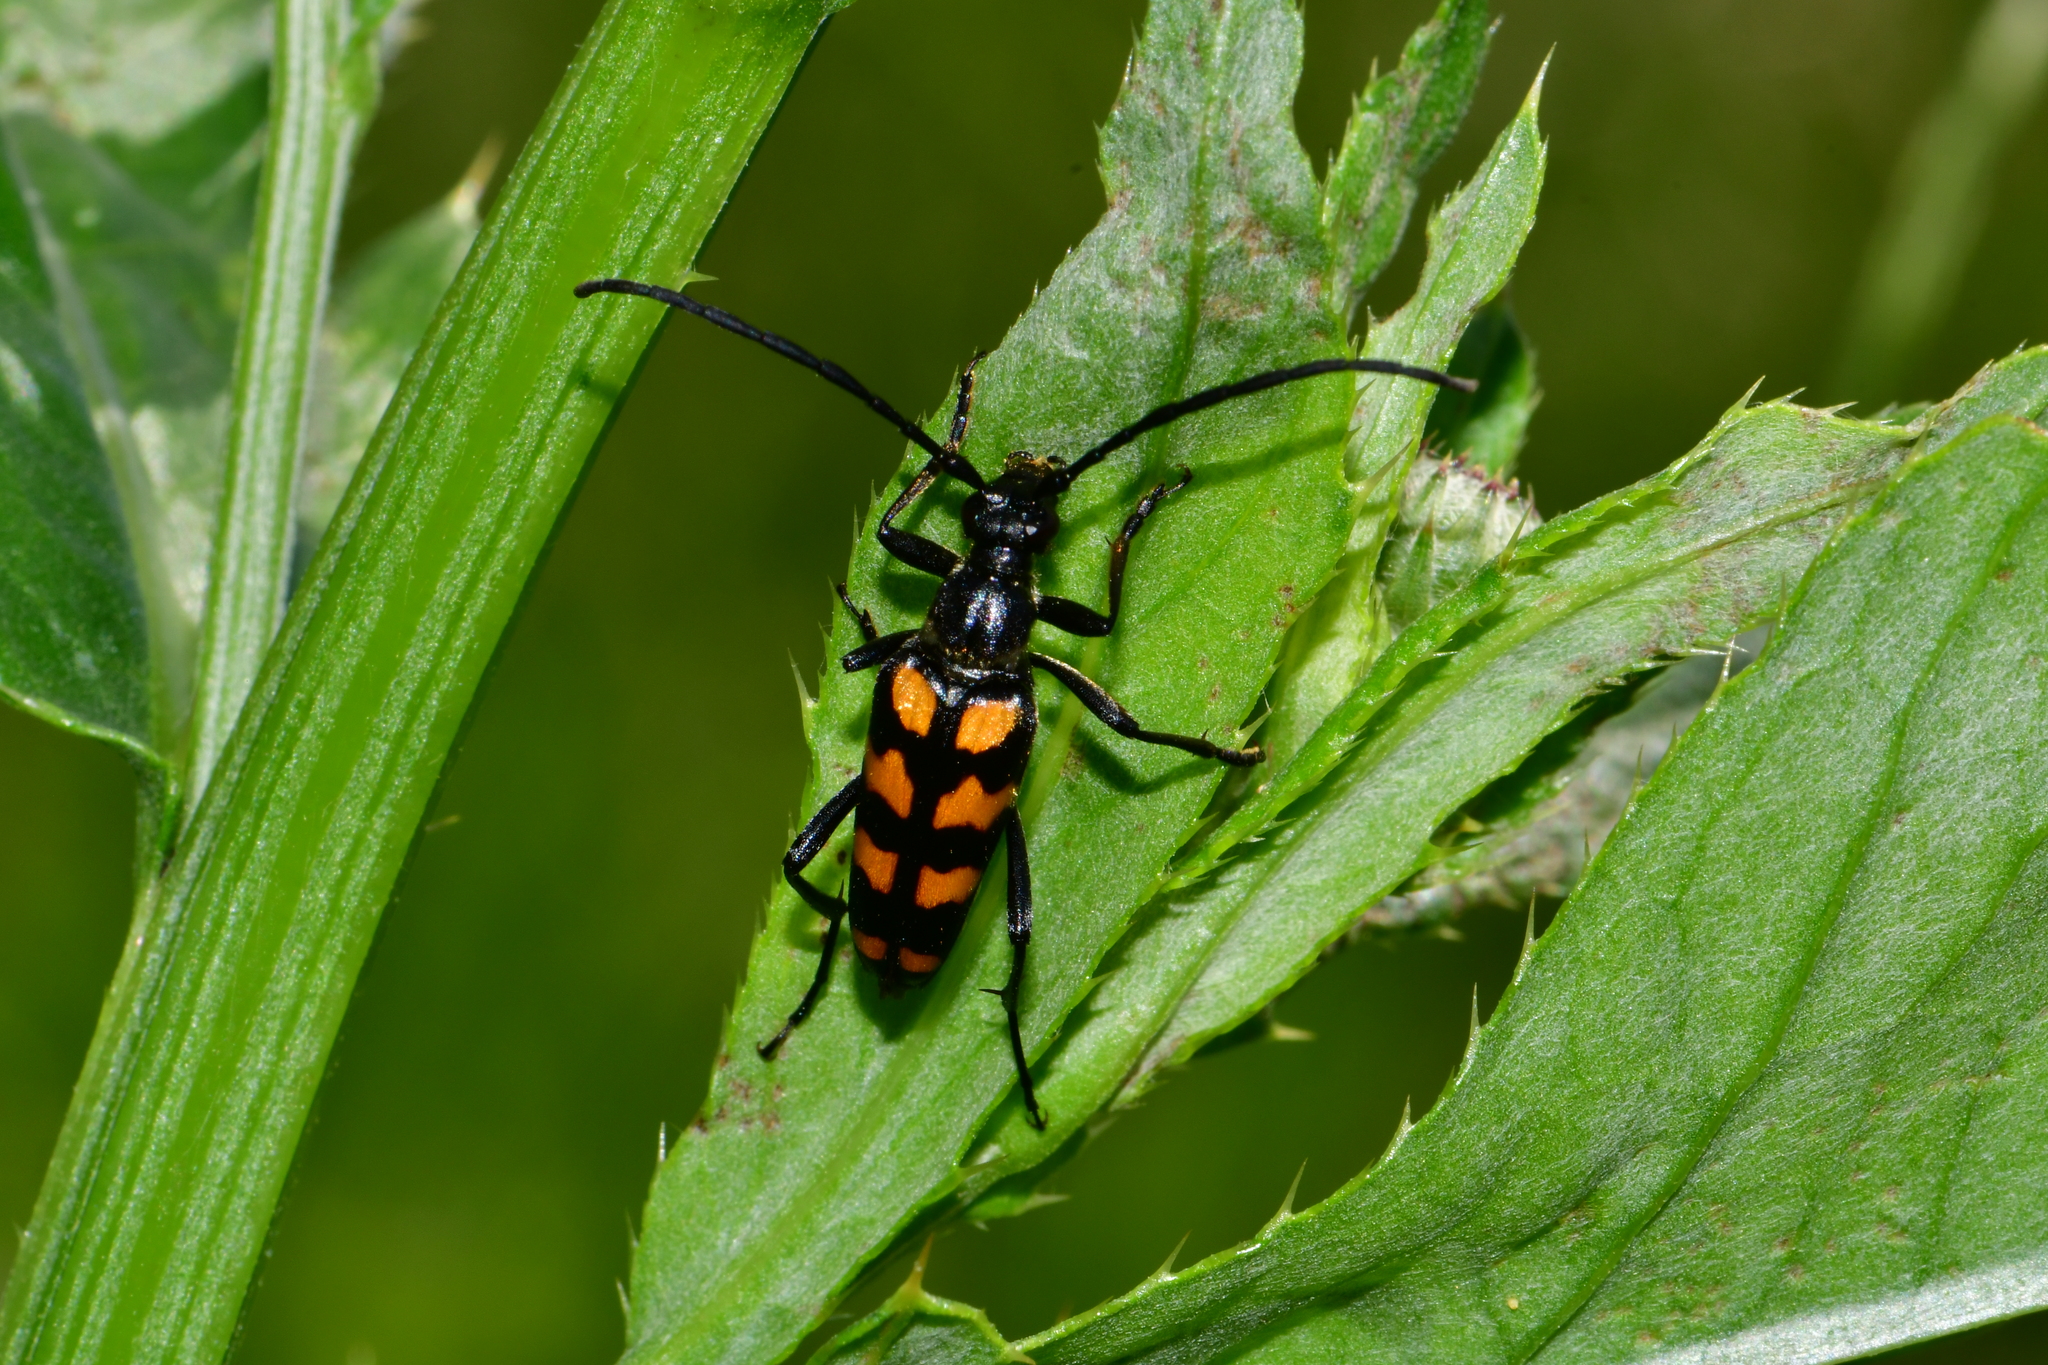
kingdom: Animalia
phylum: Arthropoda
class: Insecta
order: Coleoptera
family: Cerambycidae
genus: Leptura
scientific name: Leptura quadrifasciata
